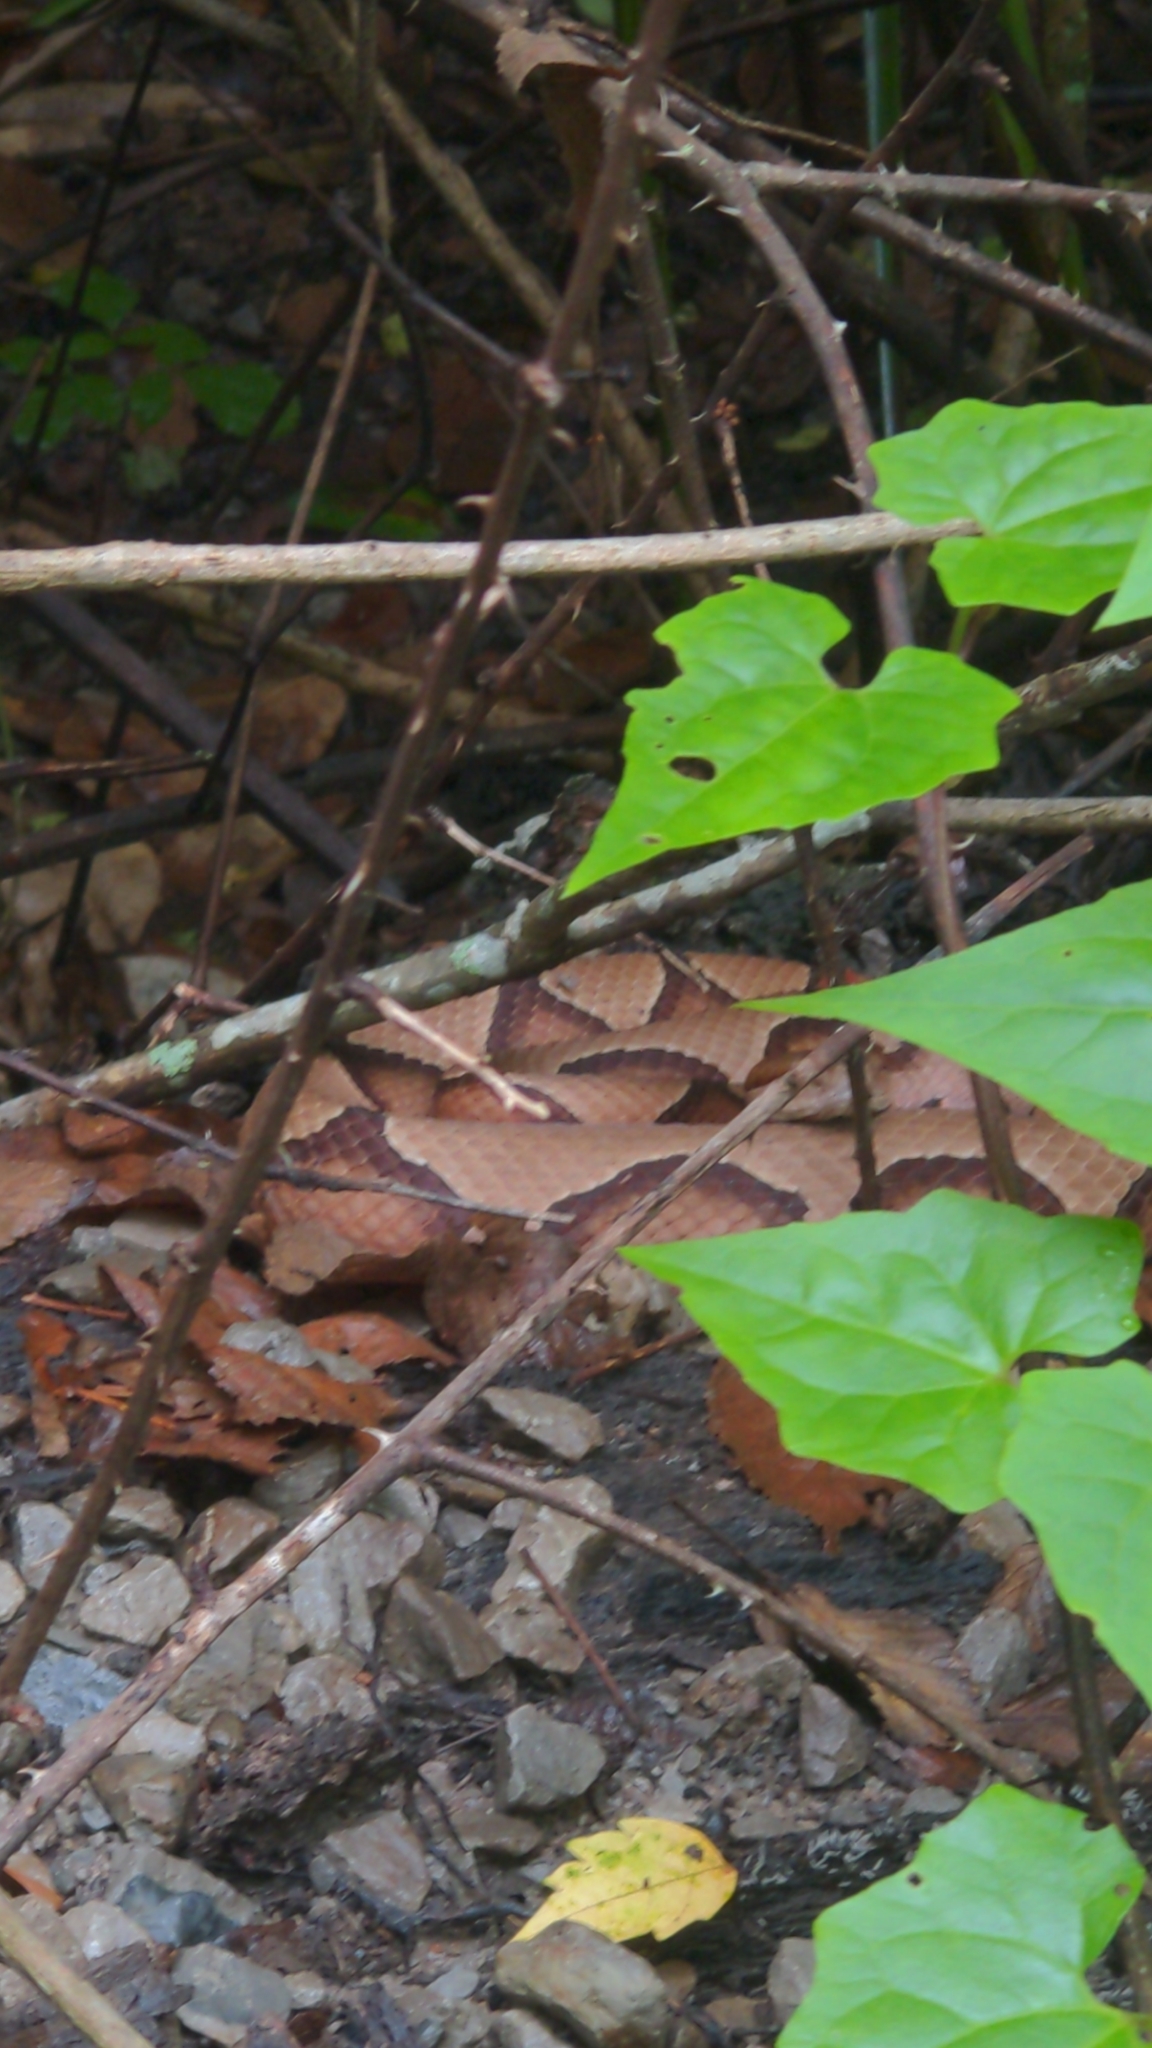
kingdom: Animalia
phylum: Chordata
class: Squamata
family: Viperidae
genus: Agkistrodon
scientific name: Agkistrodon contortrix
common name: Northern copperhead
